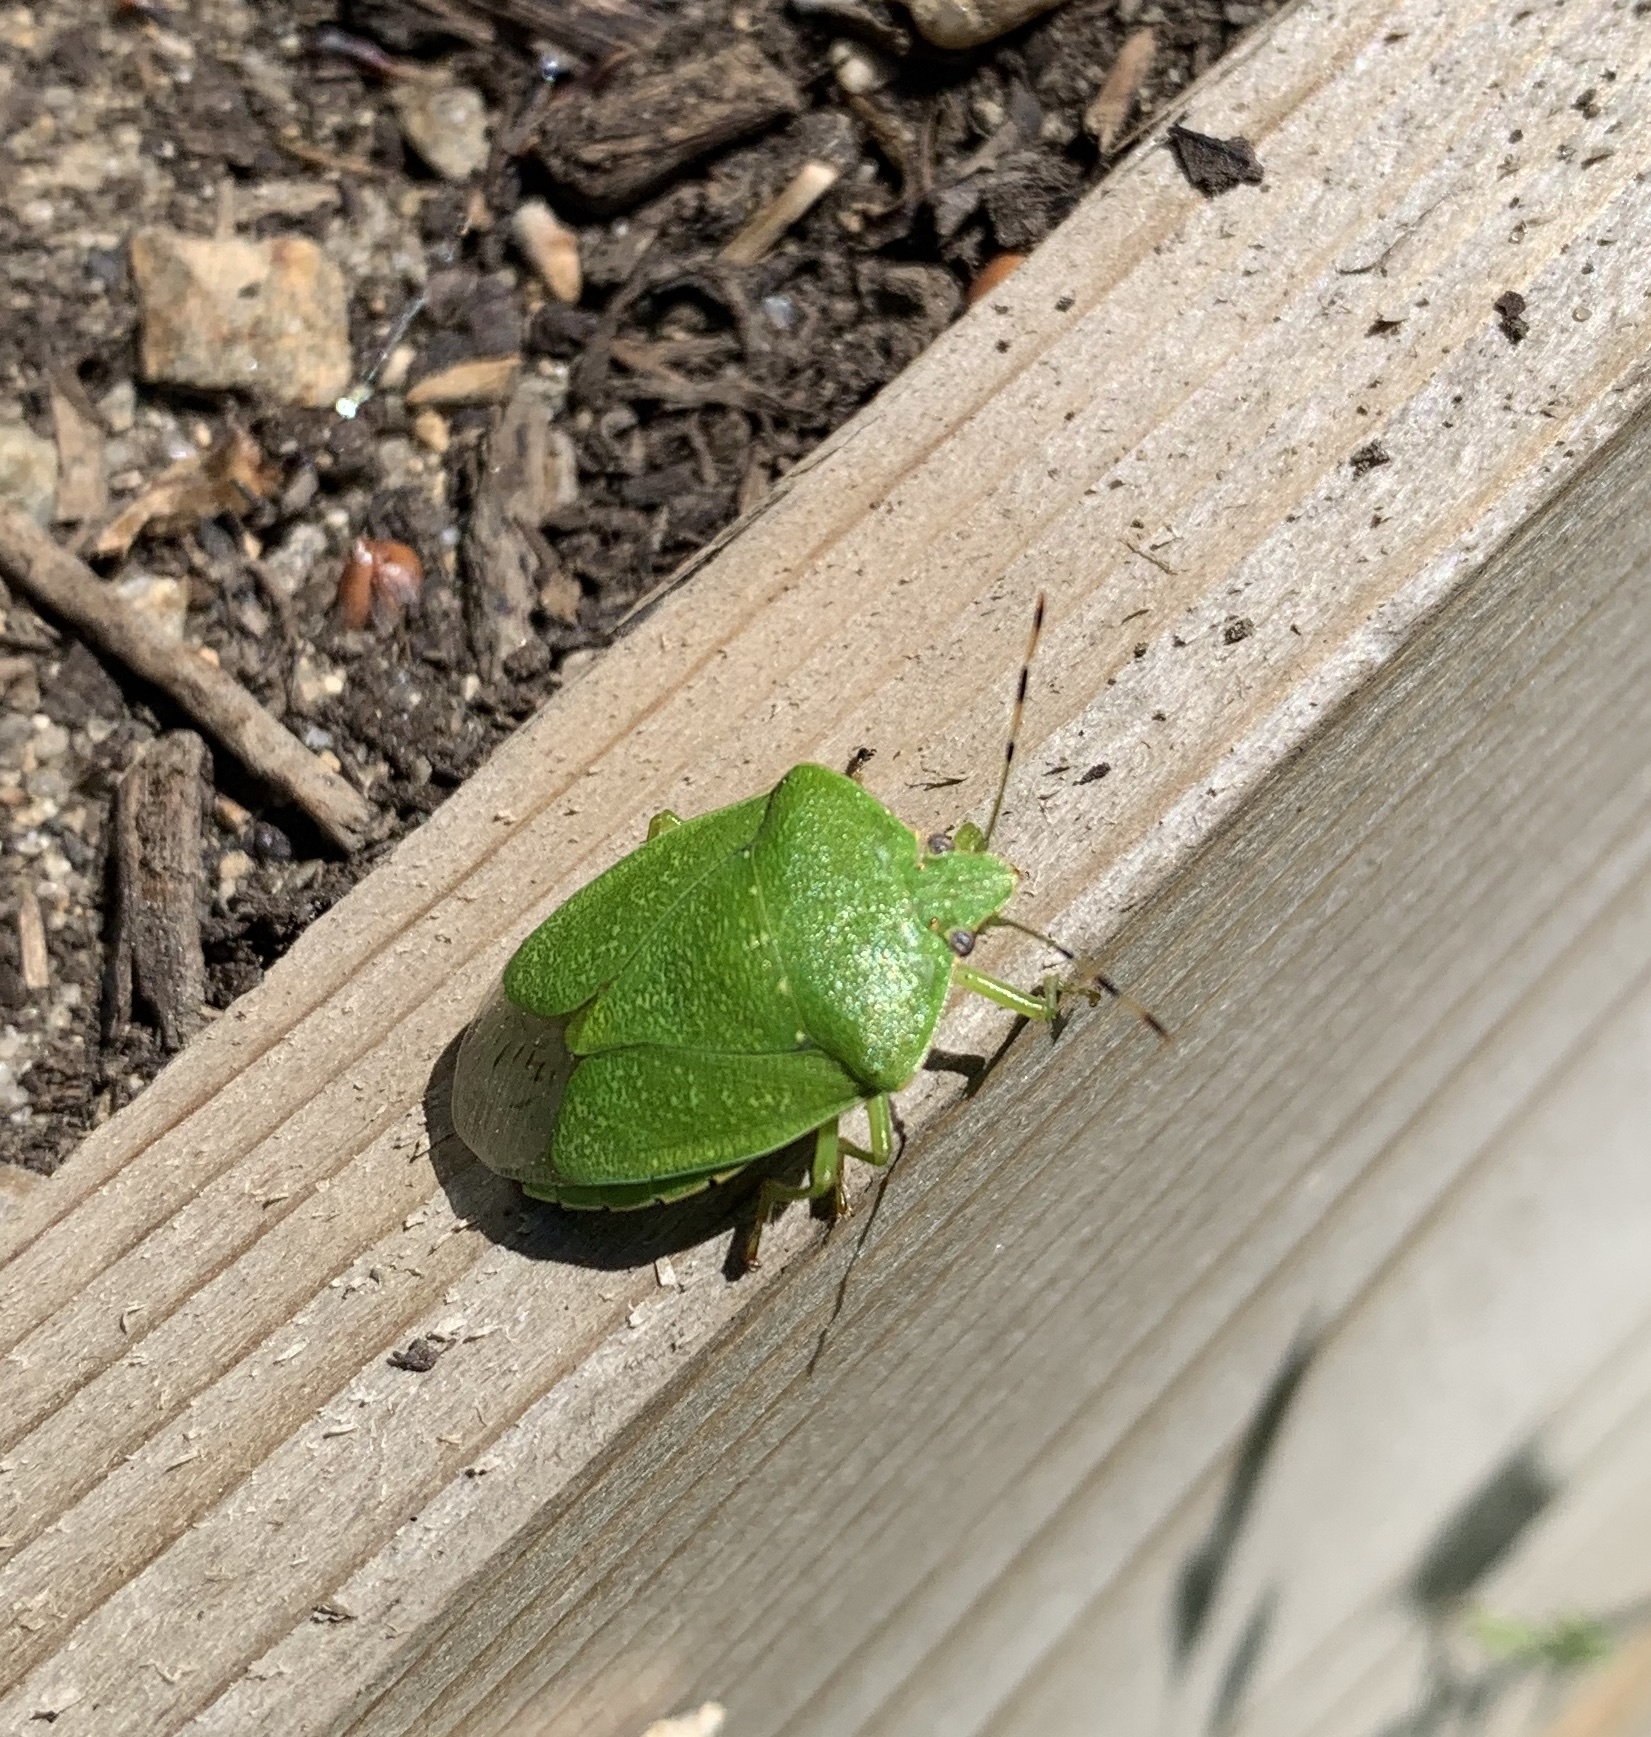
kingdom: Animalia
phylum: Arthropoda
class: Insecta
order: Hemiptera
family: Pentatomidae
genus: Chinavia
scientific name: Chinavia hilaris
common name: Green stink bug
